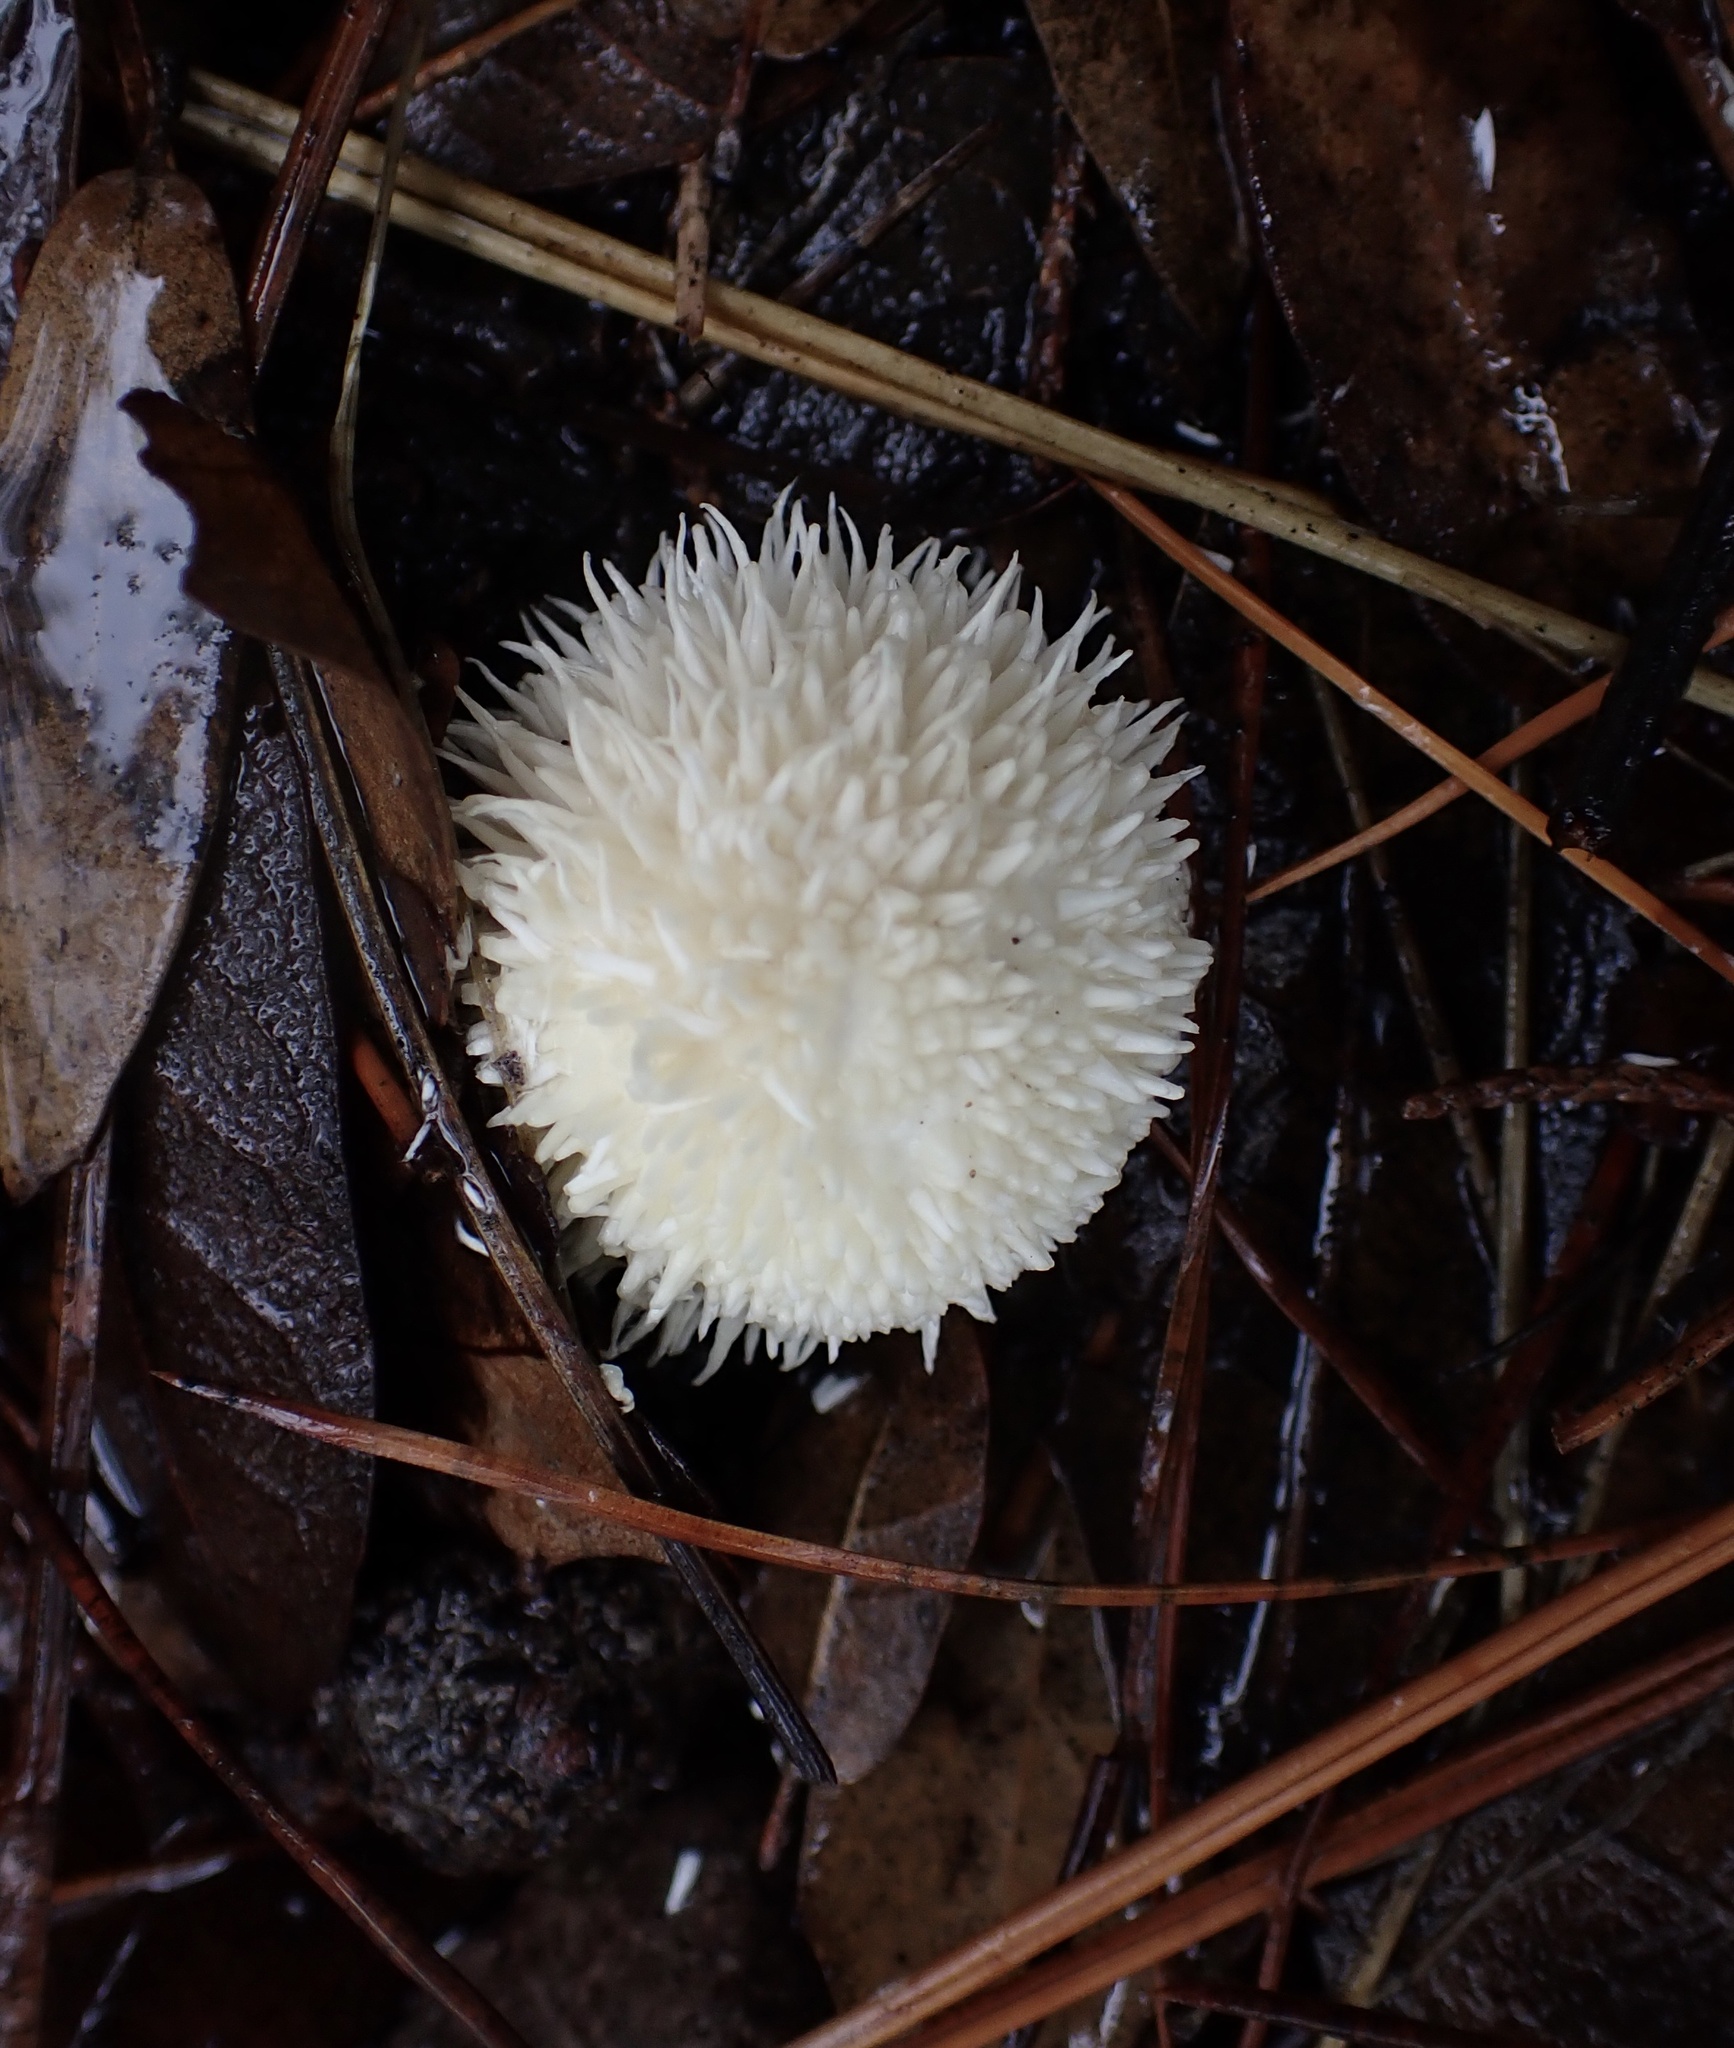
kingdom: Fungi
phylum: Basidiomycota
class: Agaricomycetes
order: Agaricales
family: Lycoperdaceae
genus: Lycoperdon
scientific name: Lycoperdon
